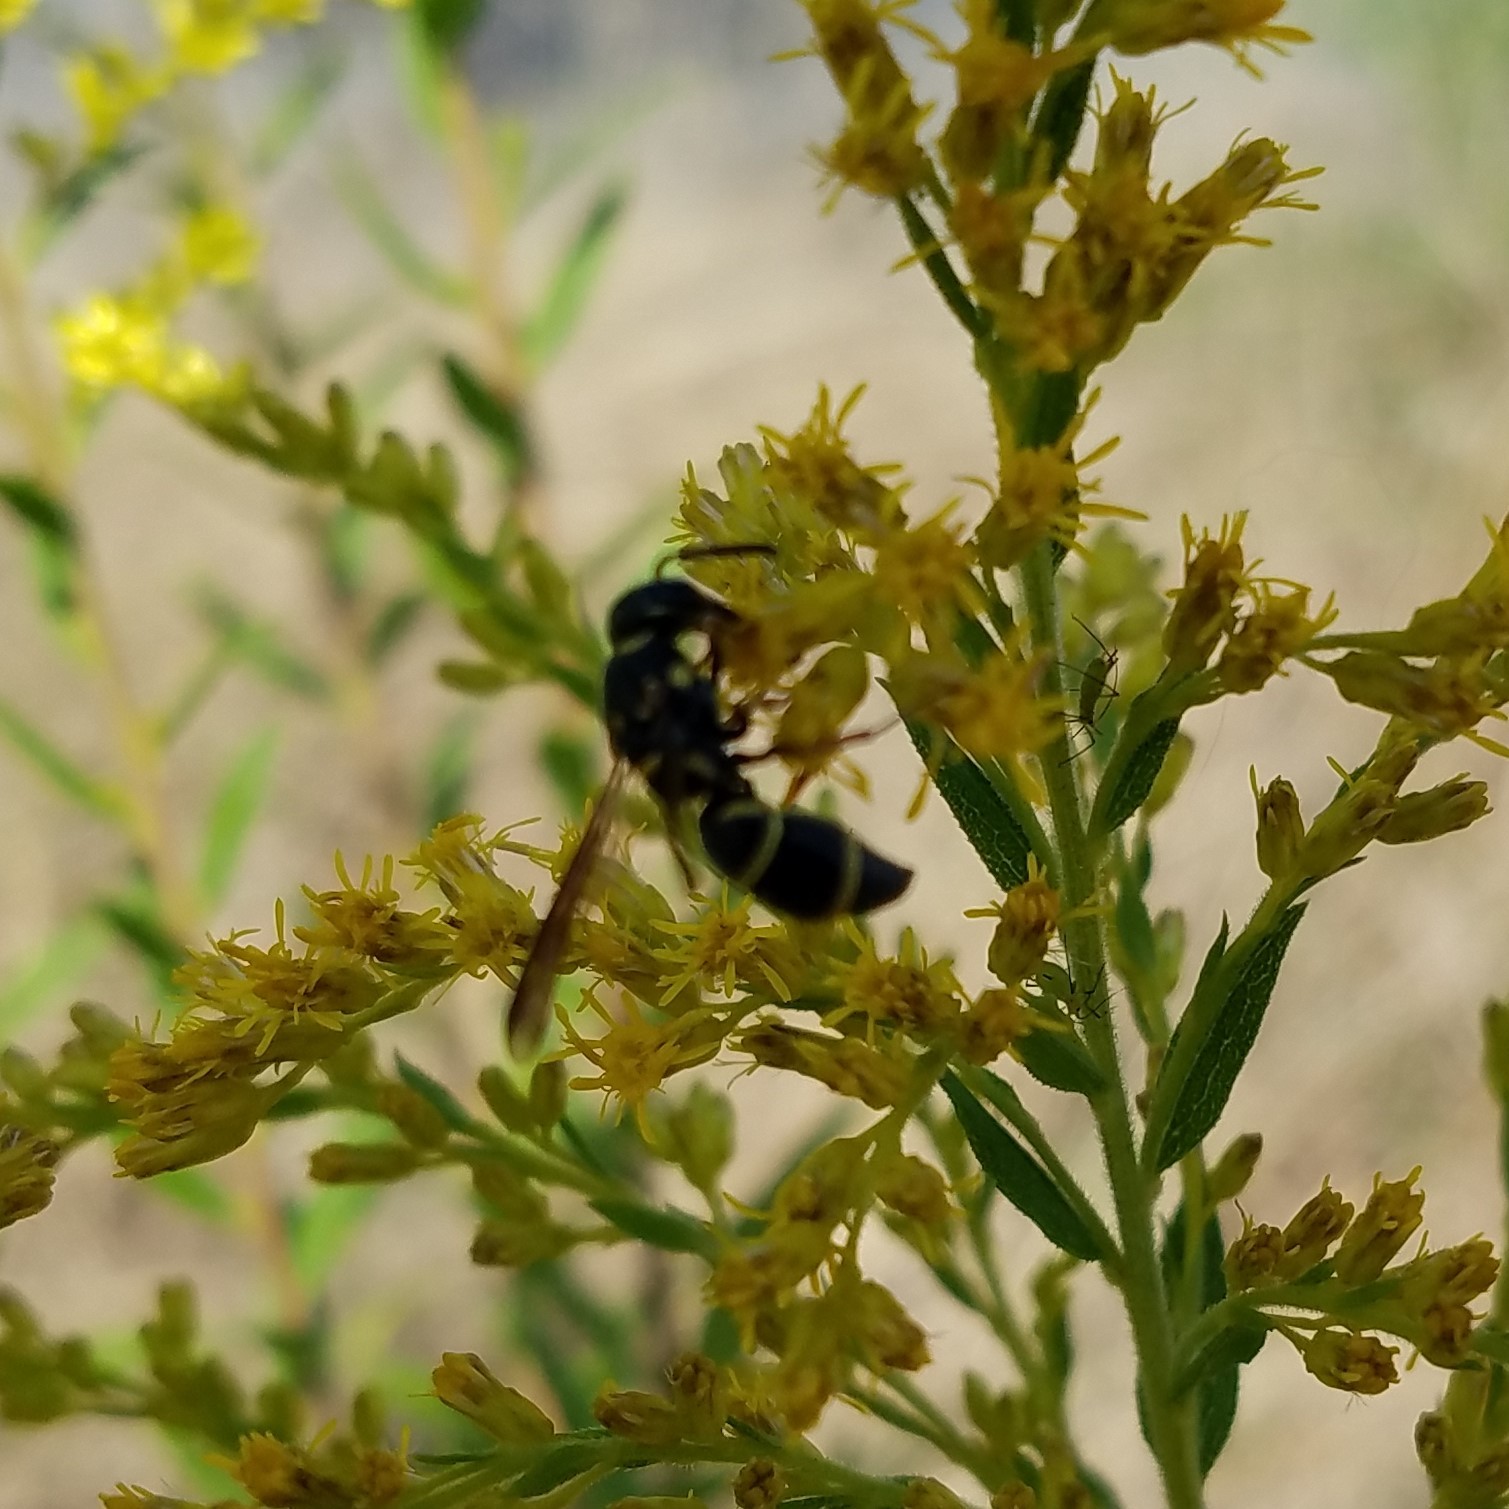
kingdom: Animalia
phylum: Arthropoda
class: Insecta
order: Hymenoptera
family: Eumenidae
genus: Parancistrocerus
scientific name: Parancistrocerus fulvipes
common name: Potter wasp
